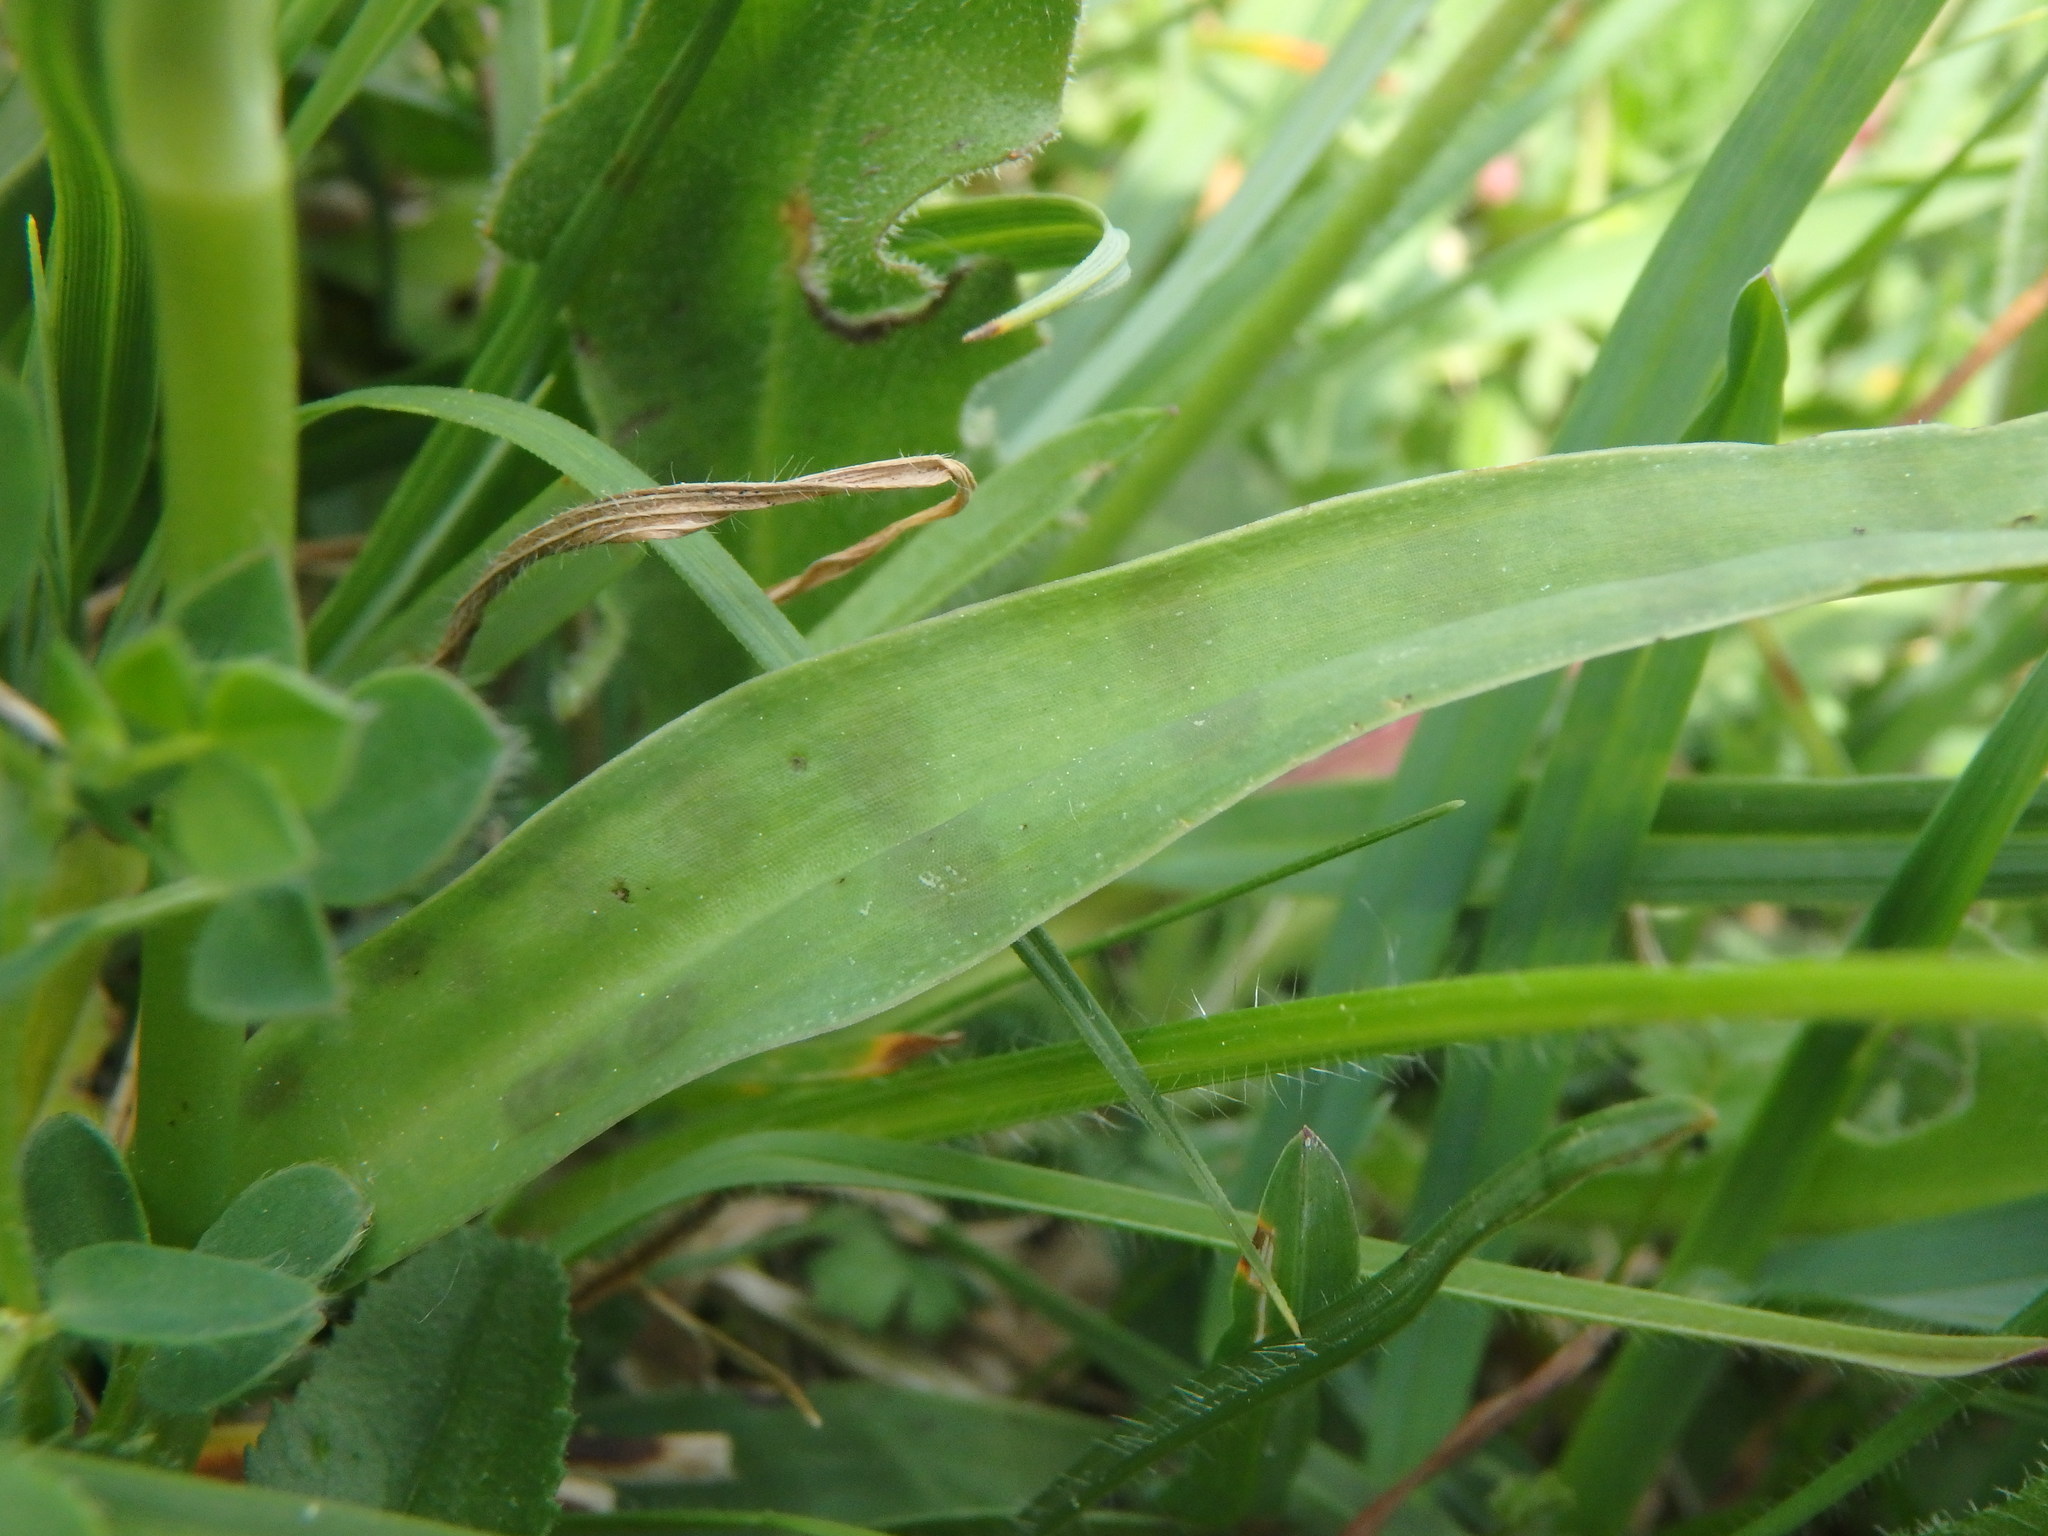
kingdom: Plantae
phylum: Tracheophyta
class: Liliopsida
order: Asparagales
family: Orchidaceae
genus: Dactylorhiza
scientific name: Dactylorhiza maculata
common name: Heath spotted-orchid
